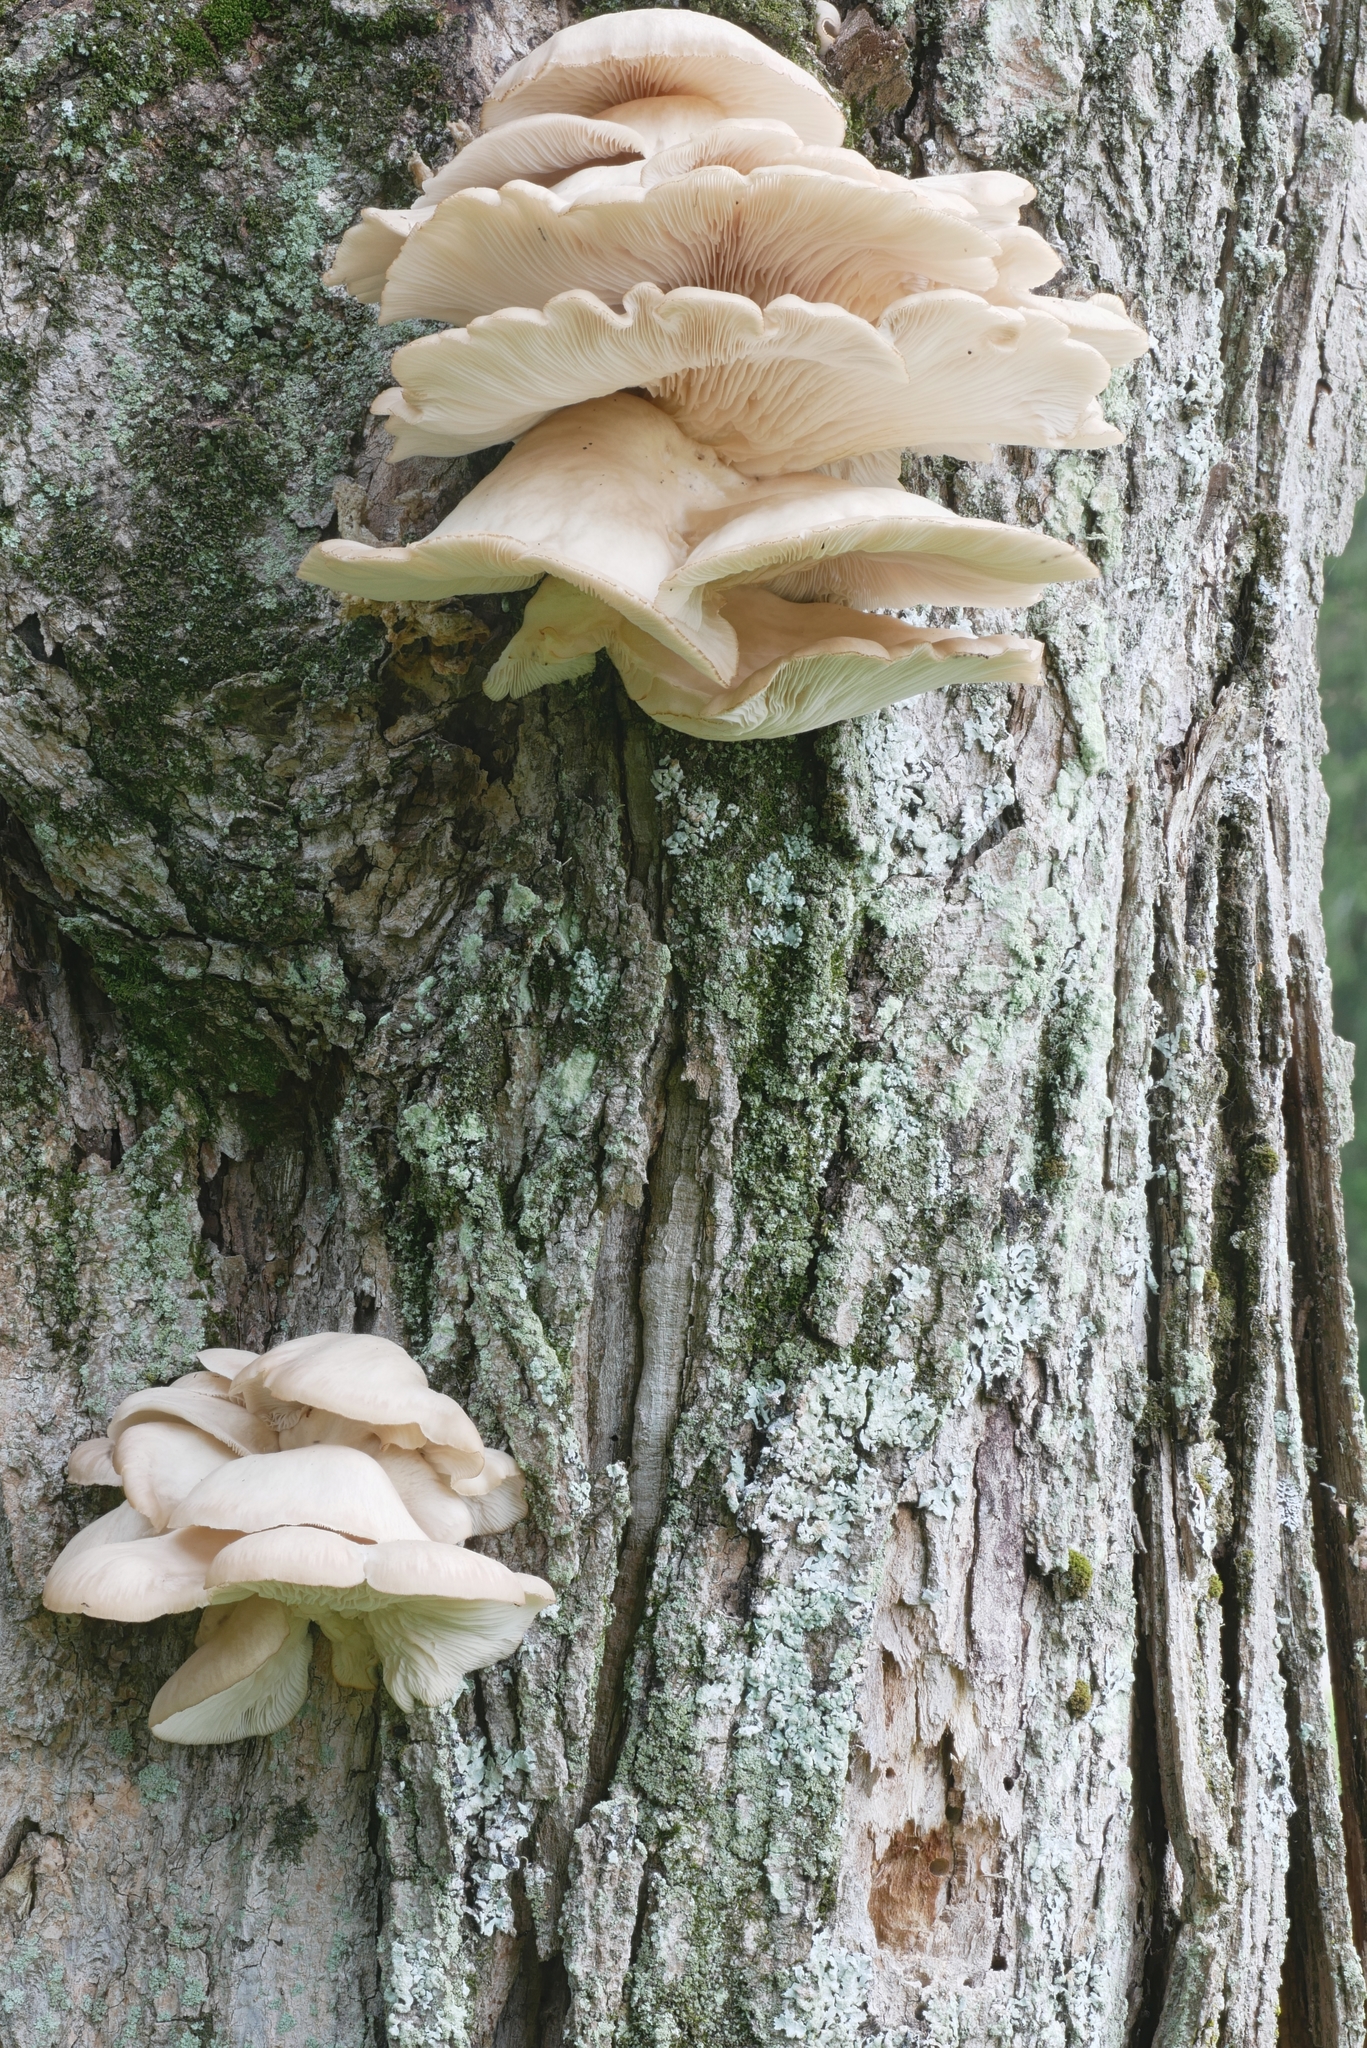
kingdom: Fungi
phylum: Basidiomycota
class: Agaricomycetes
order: Agaricales
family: Pleurotaceae
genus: Pleurotus
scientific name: Pleurotus pulmonarius
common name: Pale oyster
